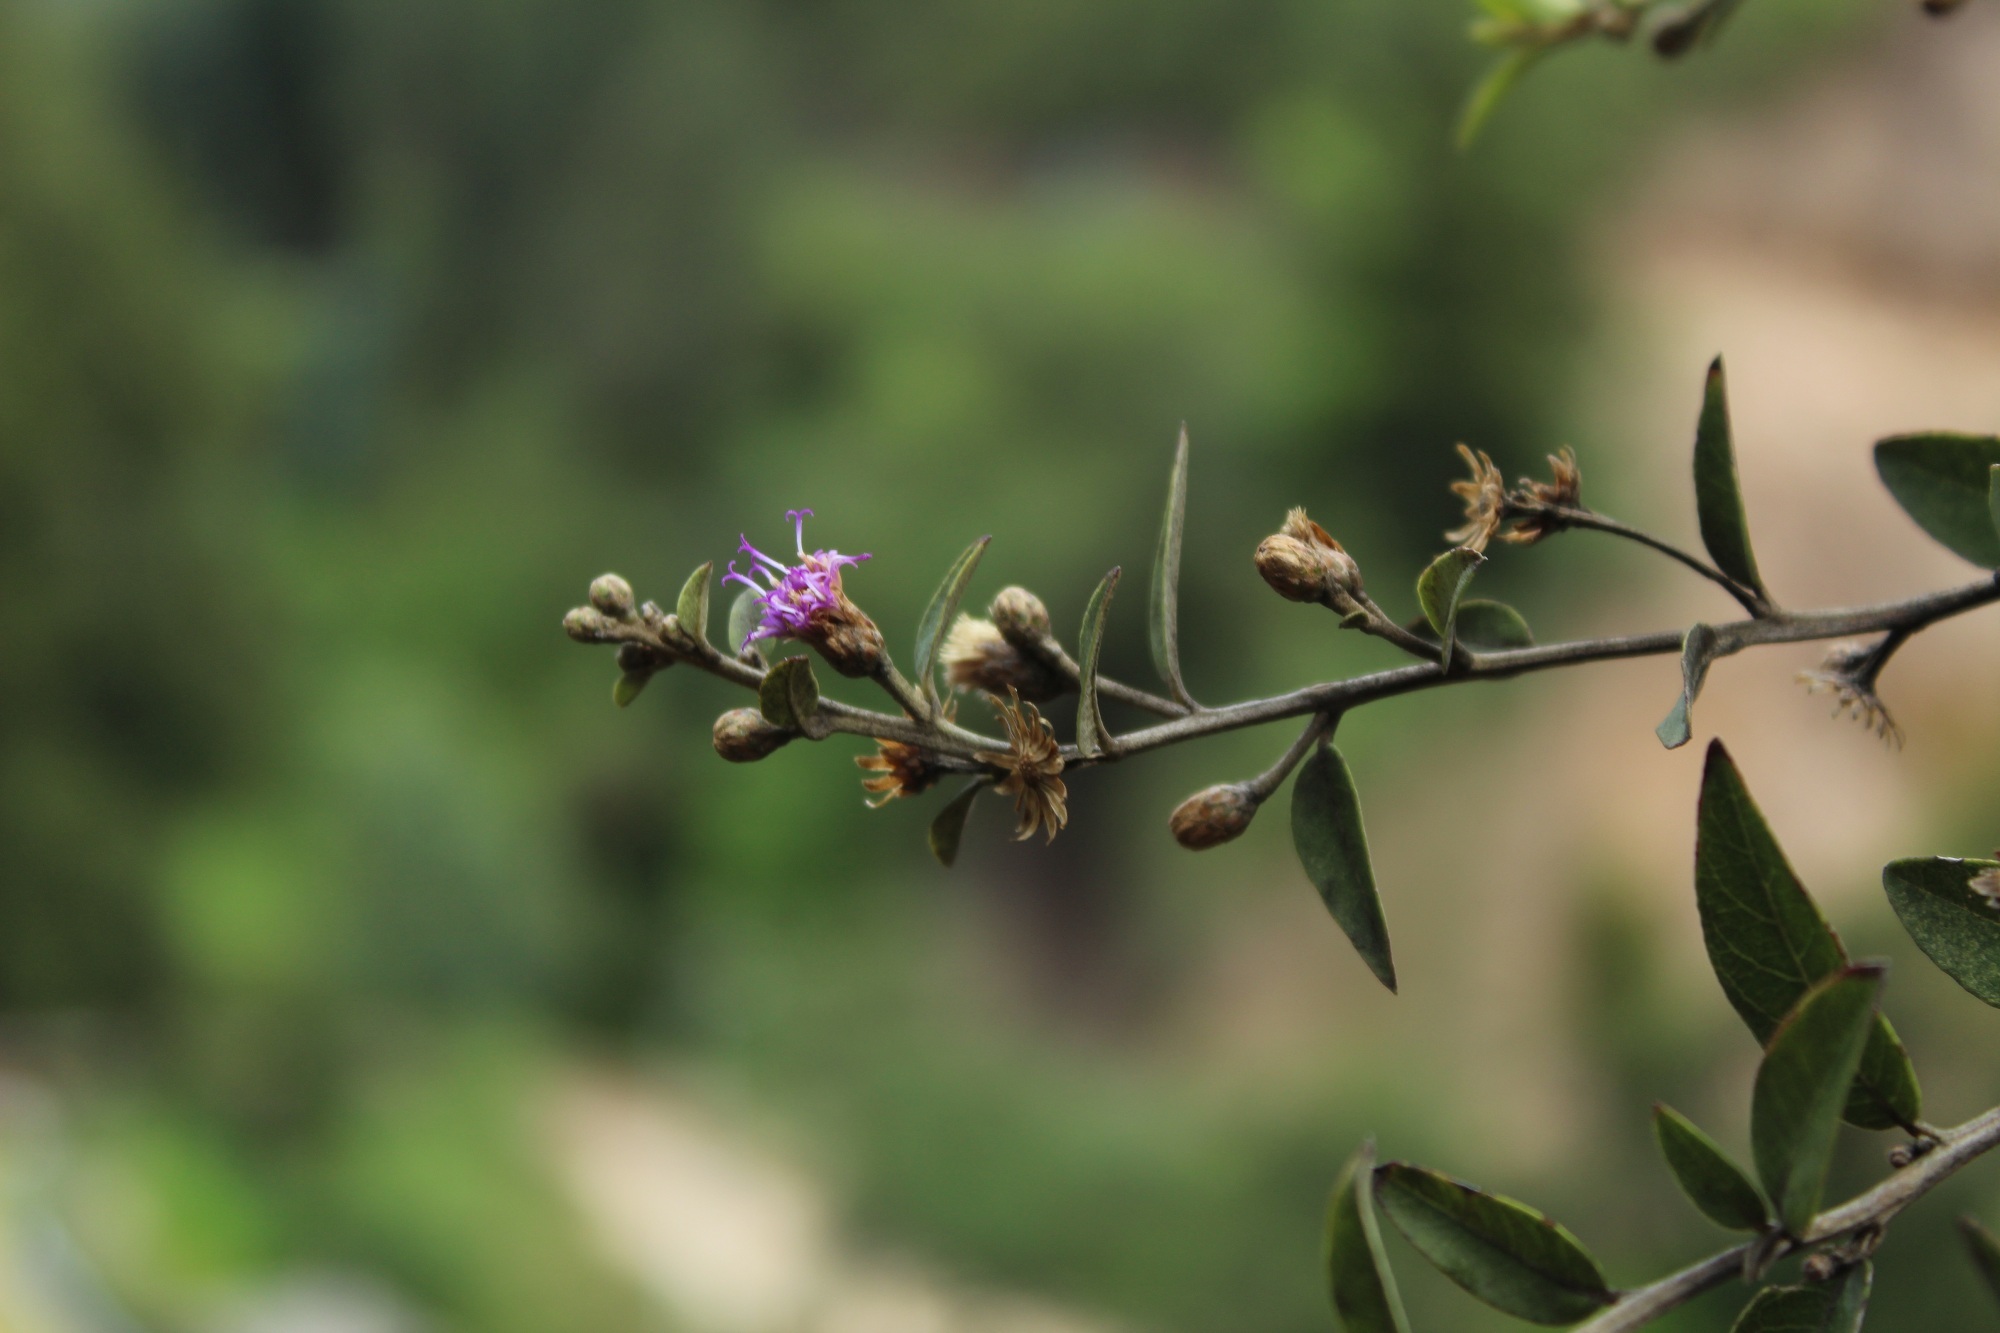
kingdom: Plantae
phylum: Tracheophyta
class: Magnoliopsida
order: Asterales
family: Asteraceae
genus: Lepidaploa
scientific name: Lepidaploa karstenii
